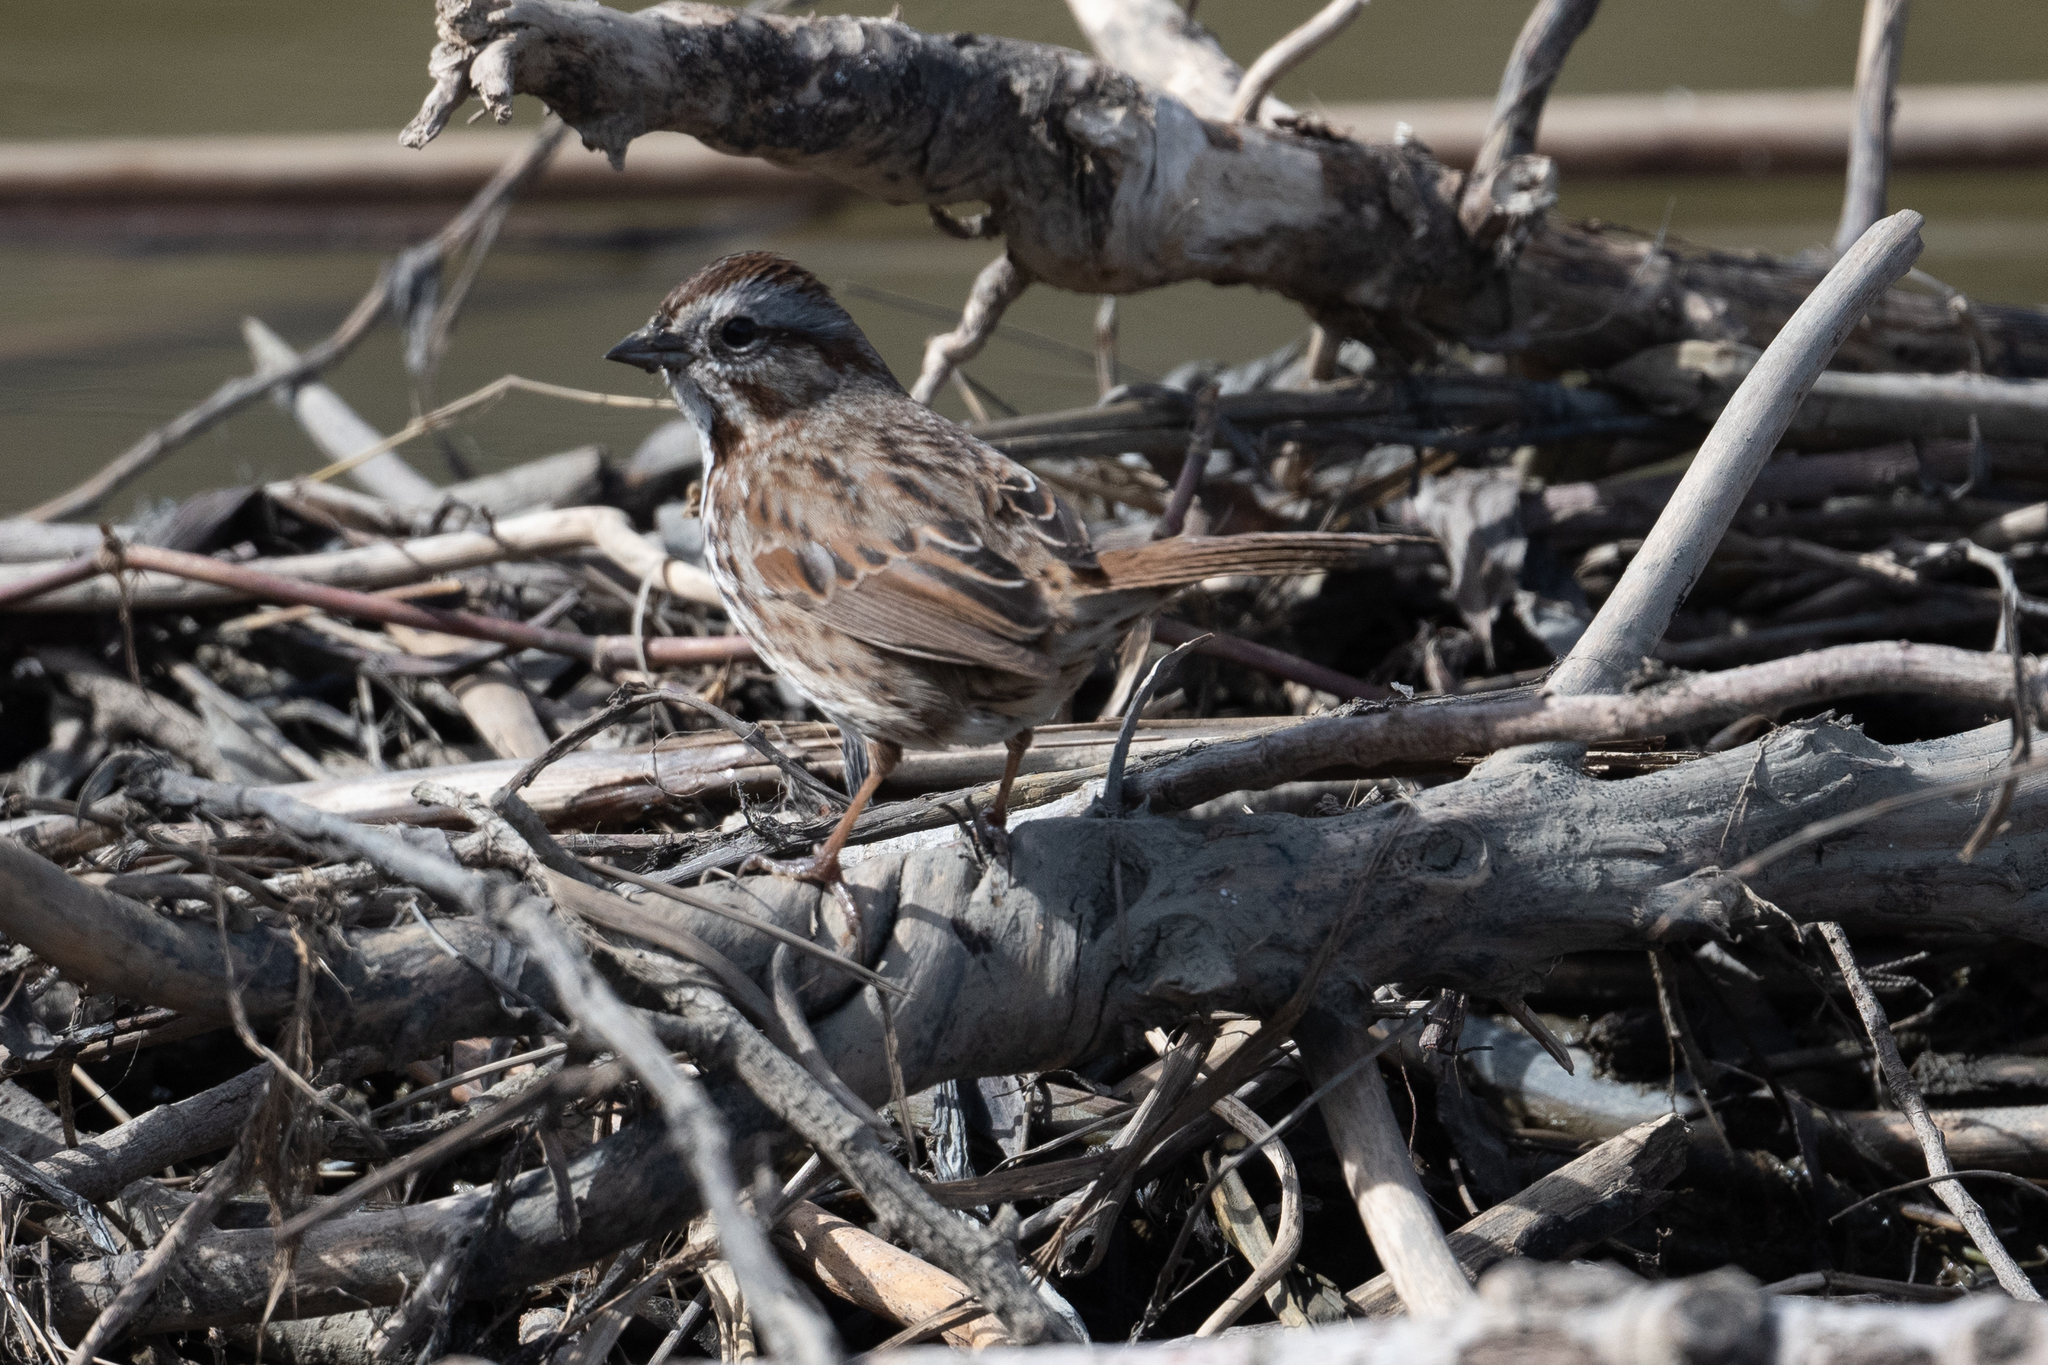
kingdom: Animalia
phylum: Chordata
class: Aves
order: Passeriformes
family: Passerellidae
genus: Melospiza
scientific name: Melospiza melodia
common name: Song sparrow
